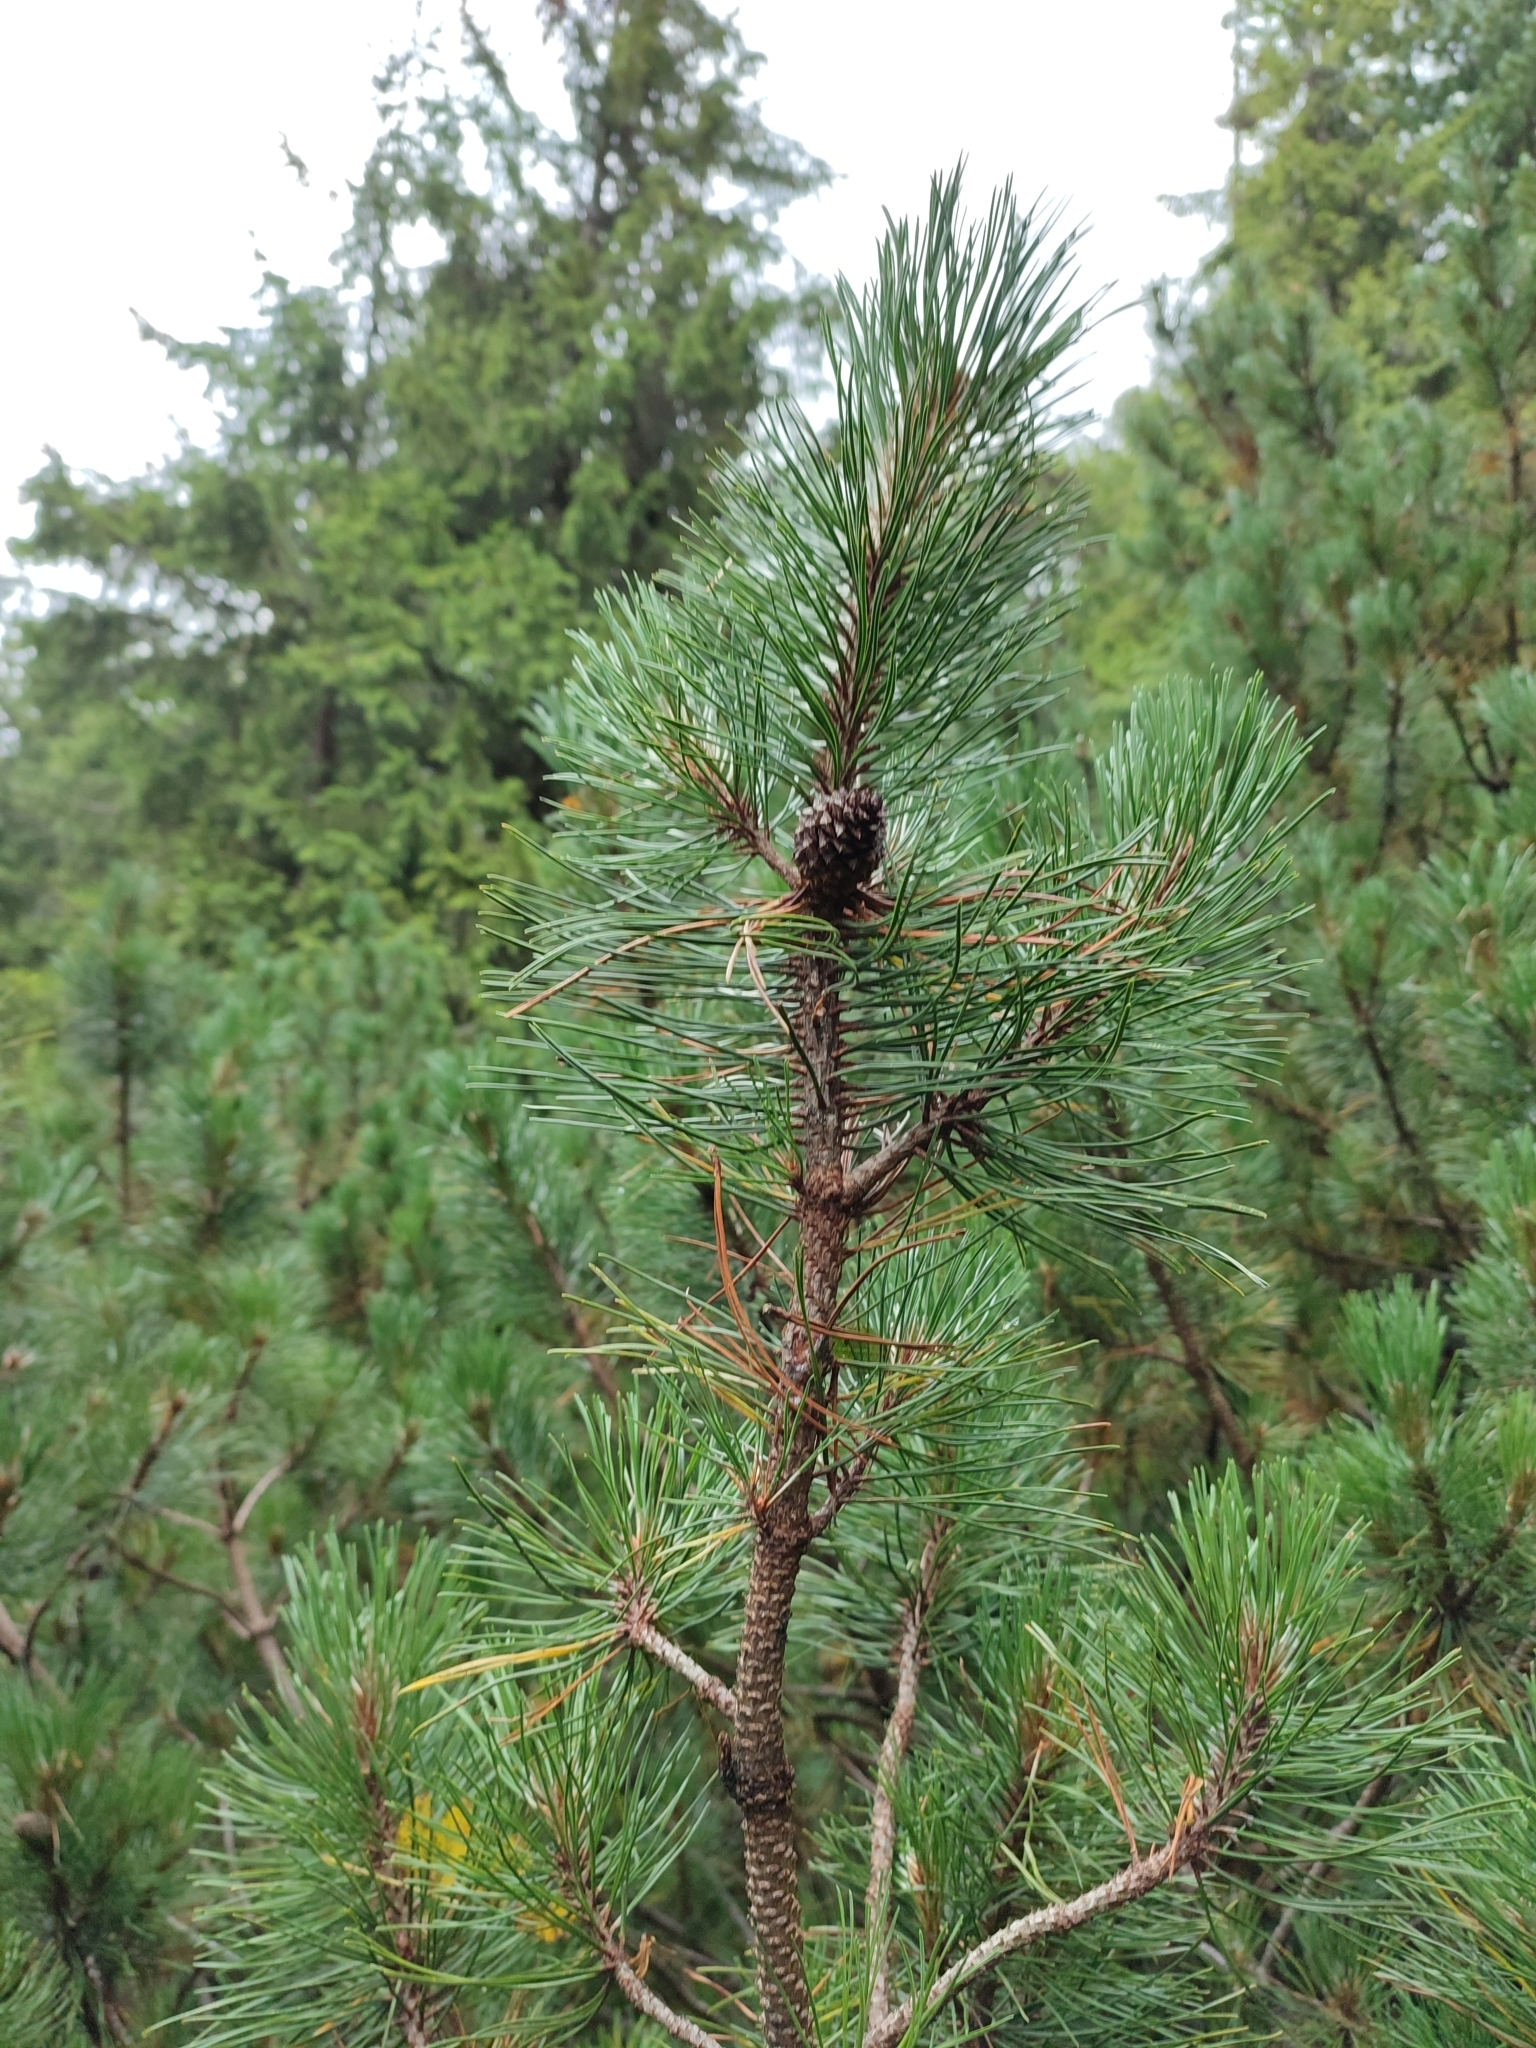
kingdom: Plantae
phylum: Tracheophyta
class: Pinopsida
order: Pinales
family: Pinaceae
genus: Pinus
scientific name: Pinus mugo
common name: Mugo pine
